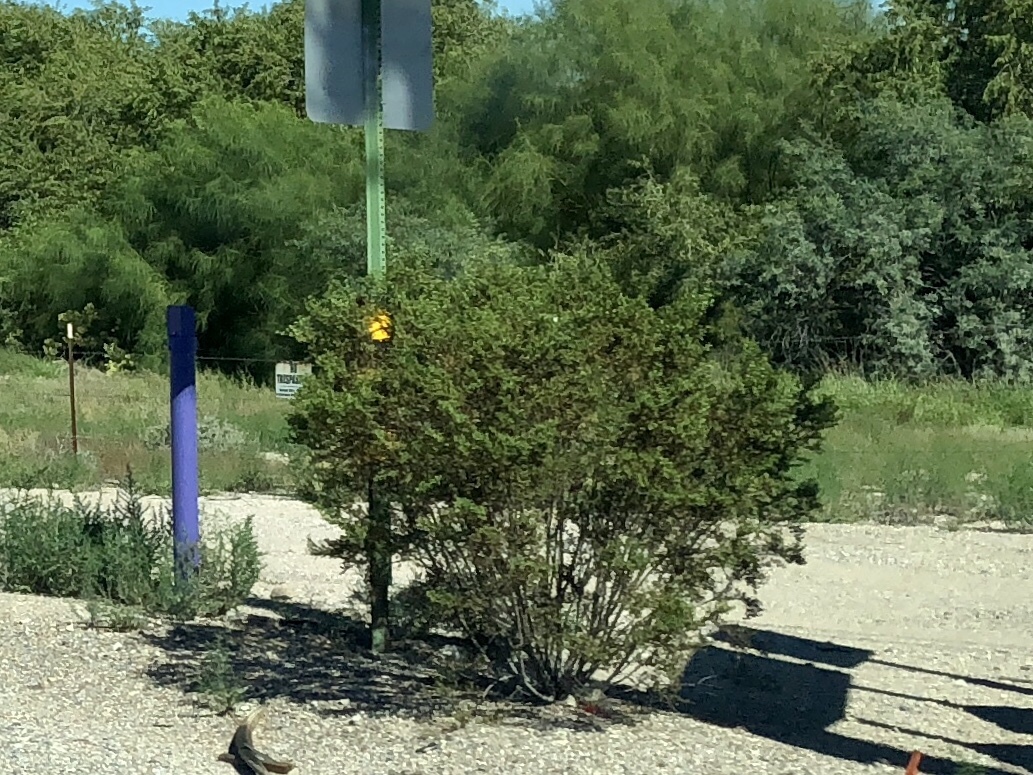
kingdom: Plantae
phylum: Tracheophyta
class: Magnoliopsida
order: Zygophyllales
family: Zygophyllaceae
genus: Larrea
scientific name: Larrea tridentata
